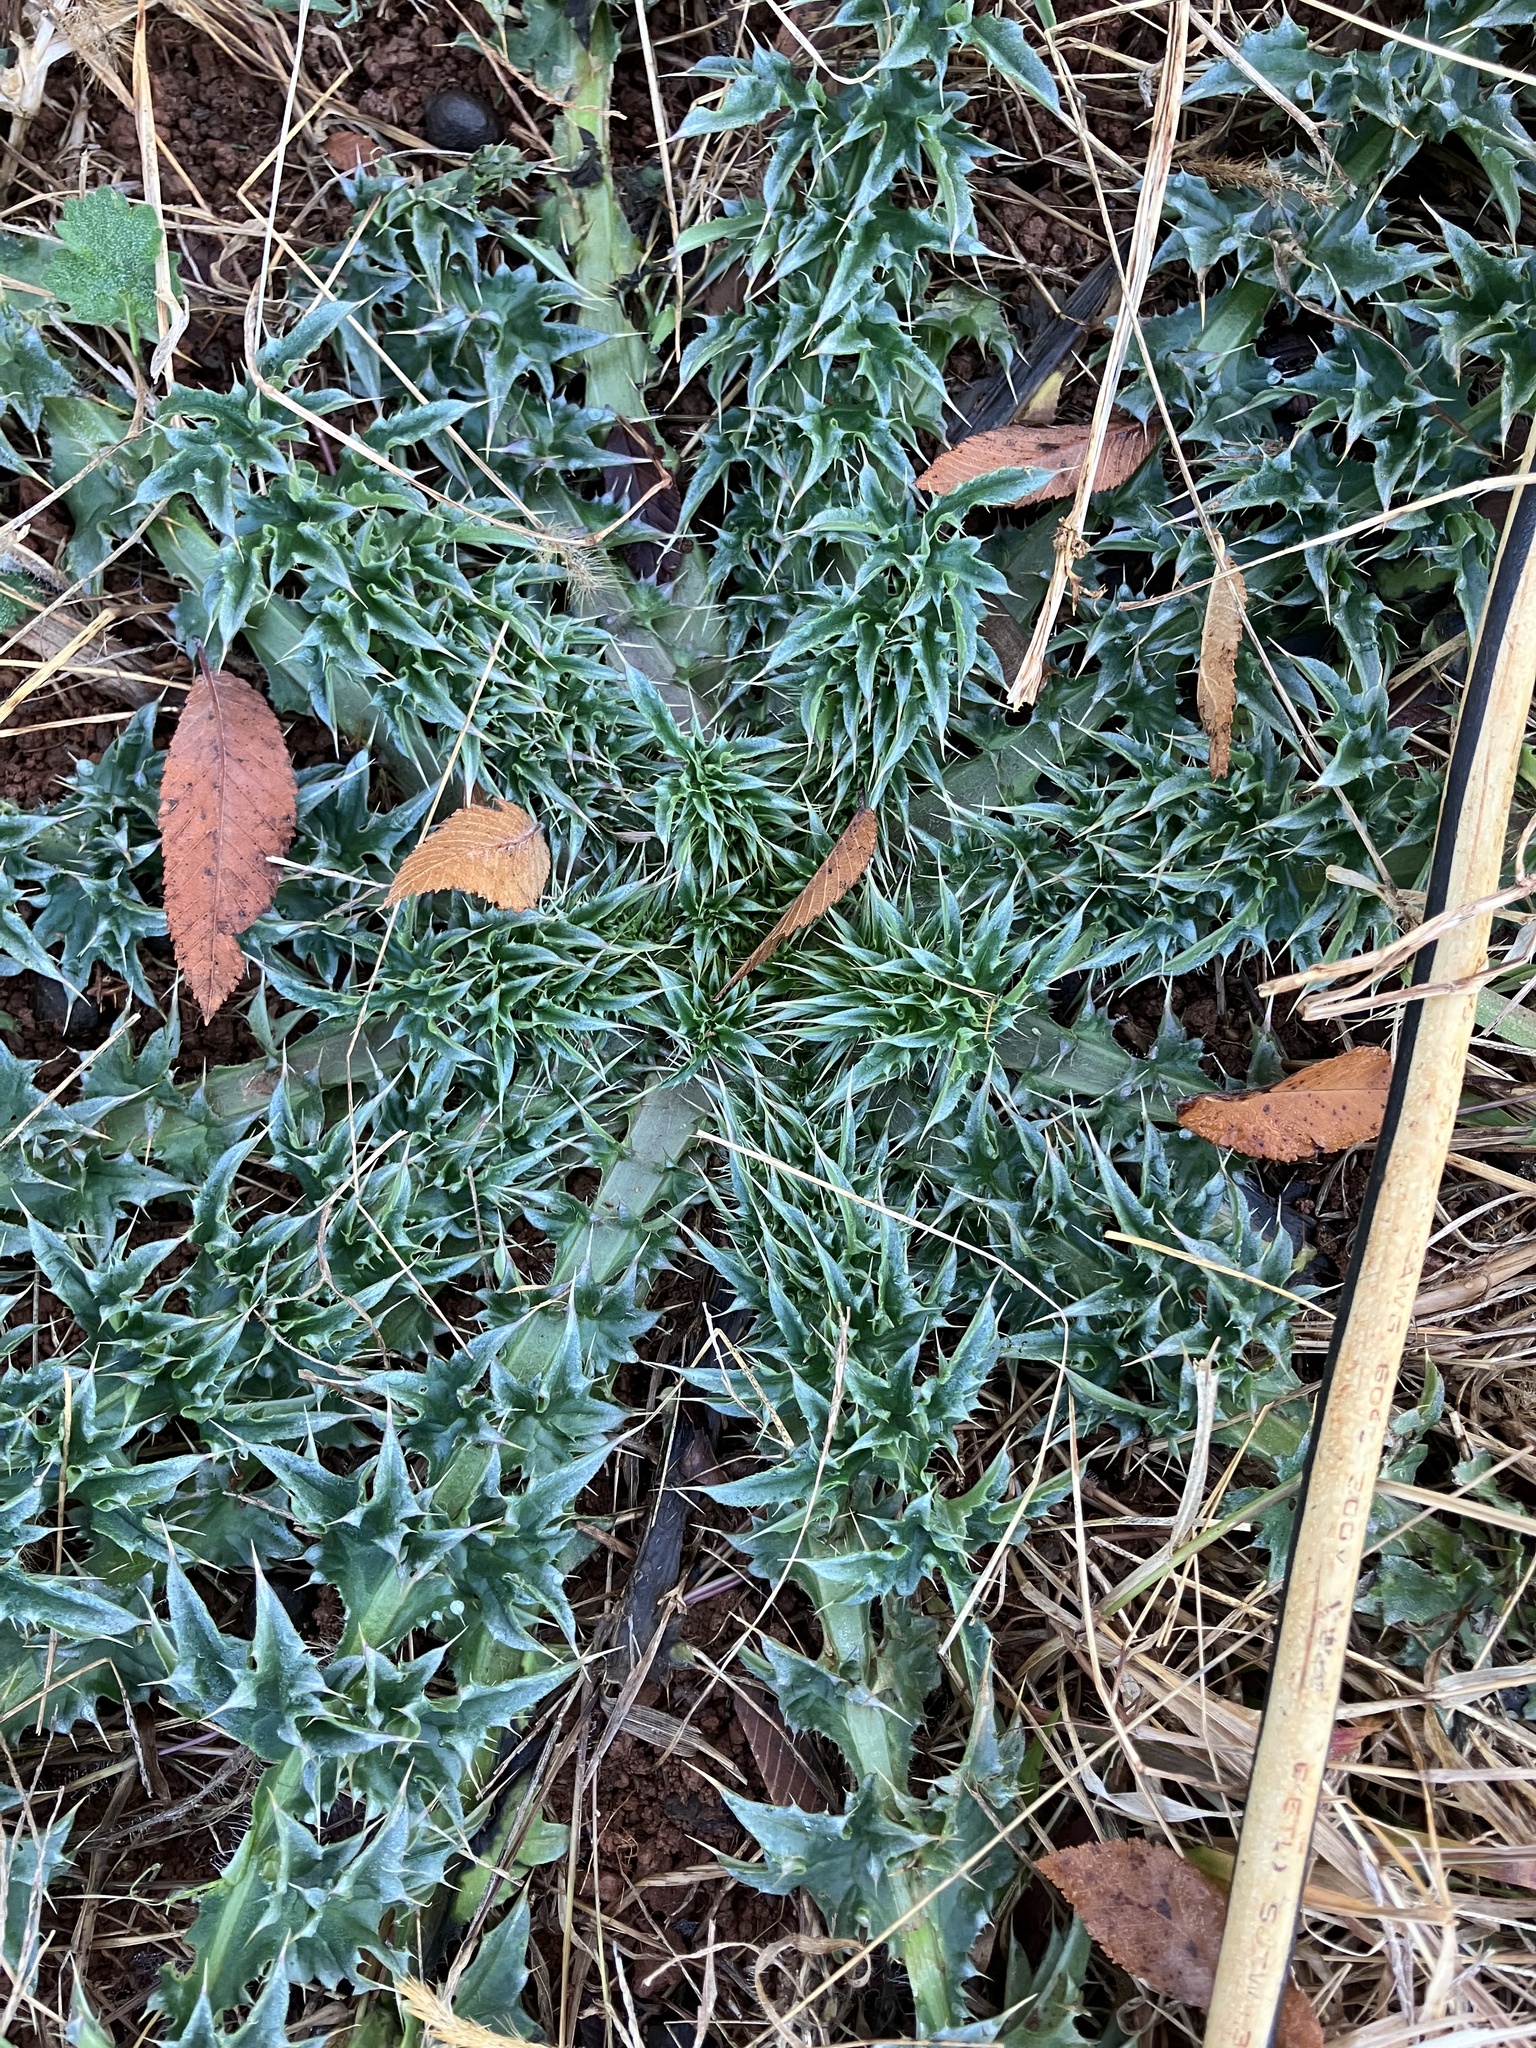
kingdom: Plantae
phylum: Tracheophyta
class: Magnoliopsida
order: Asterales
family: Asteraceae
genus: Carduus
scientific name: Carduus nutans
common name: Musk thistle
